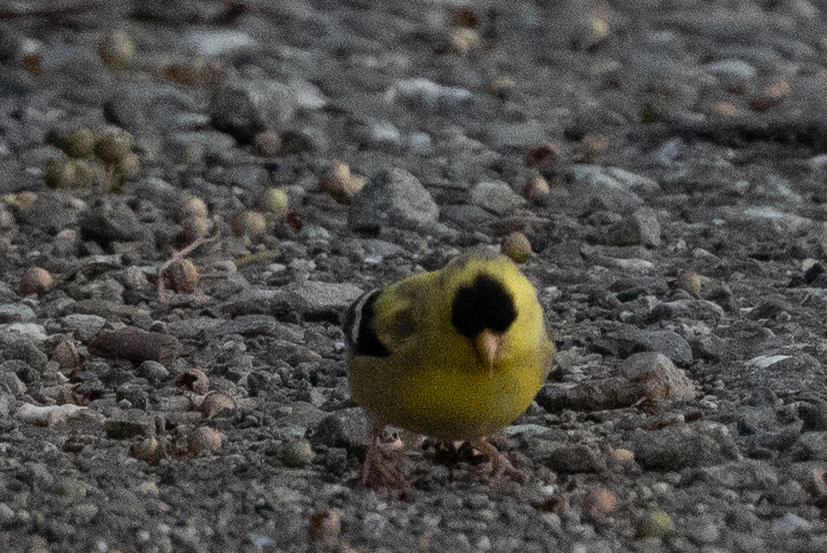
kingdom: Animalia
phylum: Chordata
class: Aves
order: Passeriformes
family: Fringillidae
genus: Spinus
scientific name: Spinus tristis
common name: American goldfinch
